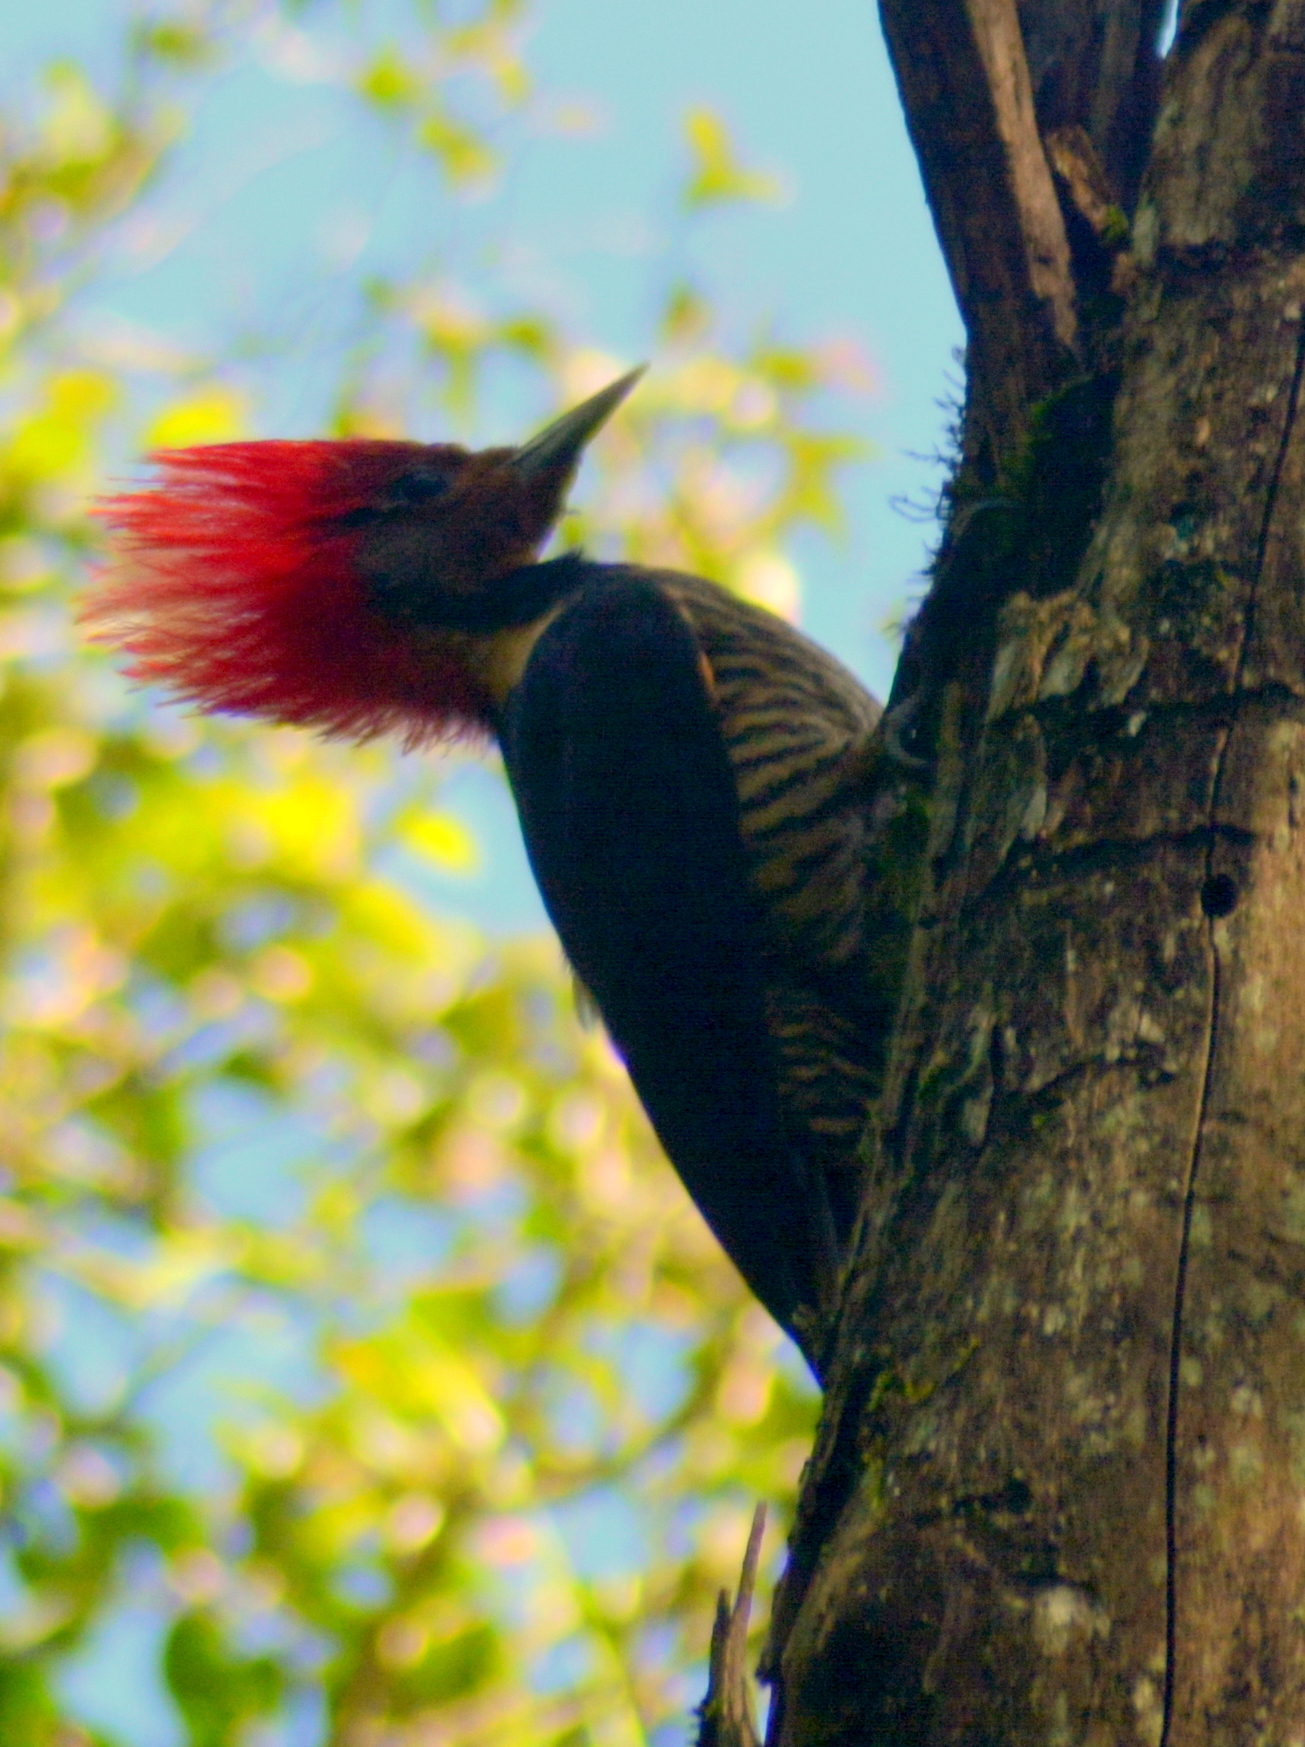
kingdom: Animalia
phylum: Chordata
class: Aves
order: Piciformes
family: Picidae
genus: Celeus
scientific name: Celeus galeatus
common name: Helmeted woodpecker
